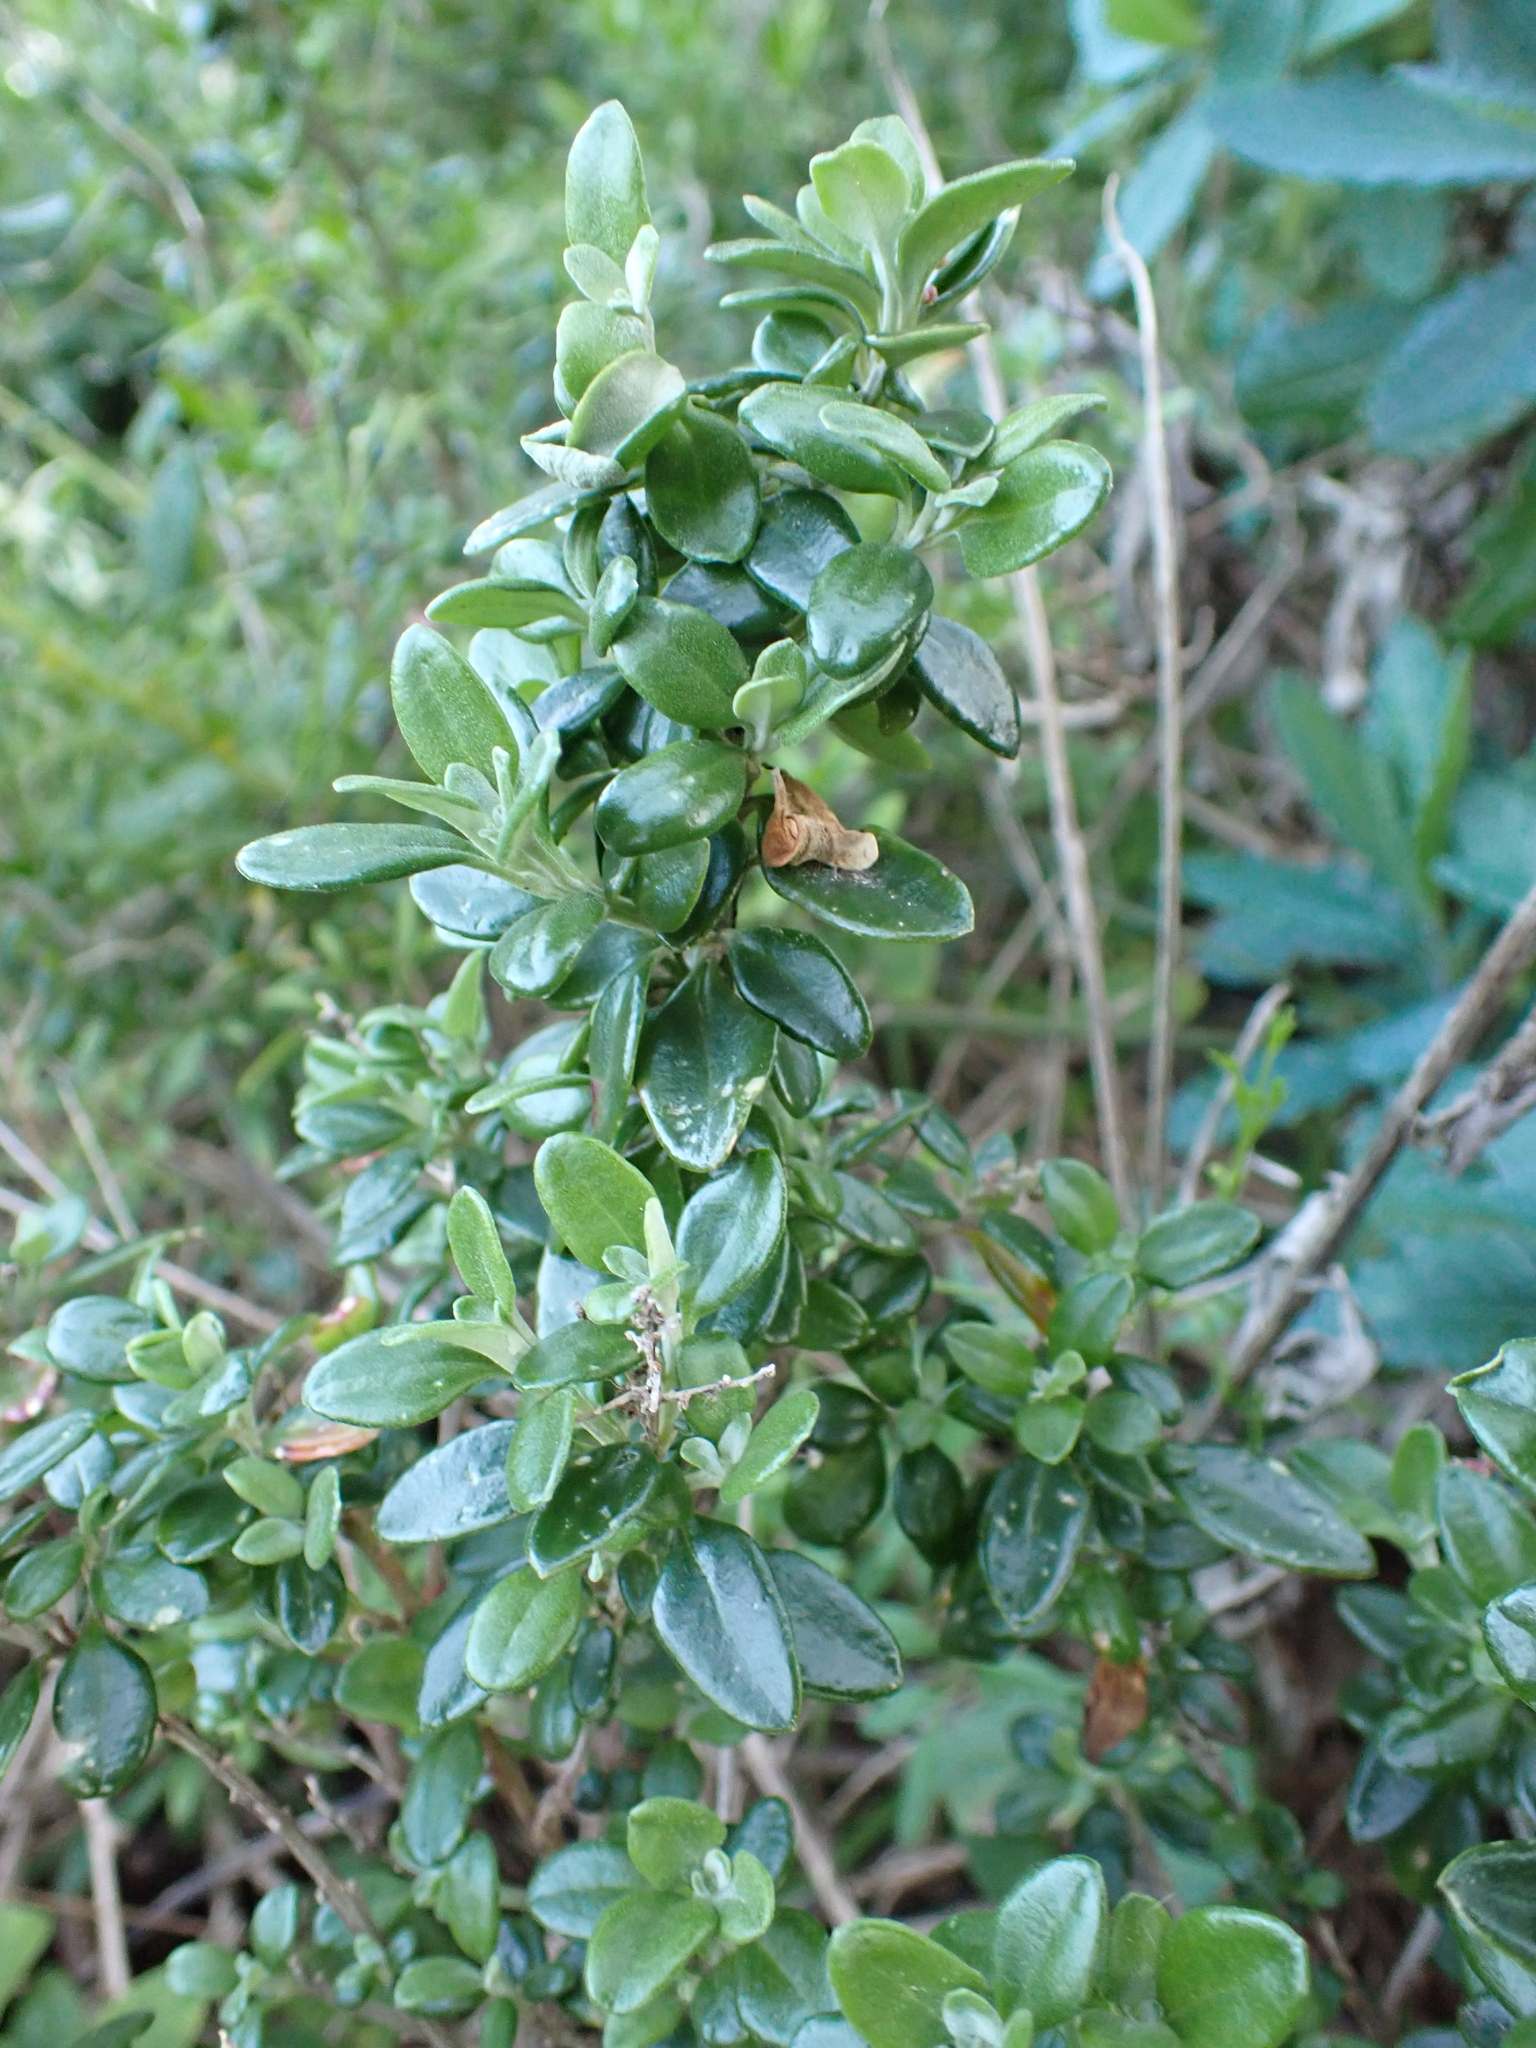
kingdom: Plantae
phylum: Tracheophyta
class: Magnoliopsida
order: Caryophyllales
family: Amaranthaceae
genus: Chenopodium
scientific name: Chenopodium candolleanum
